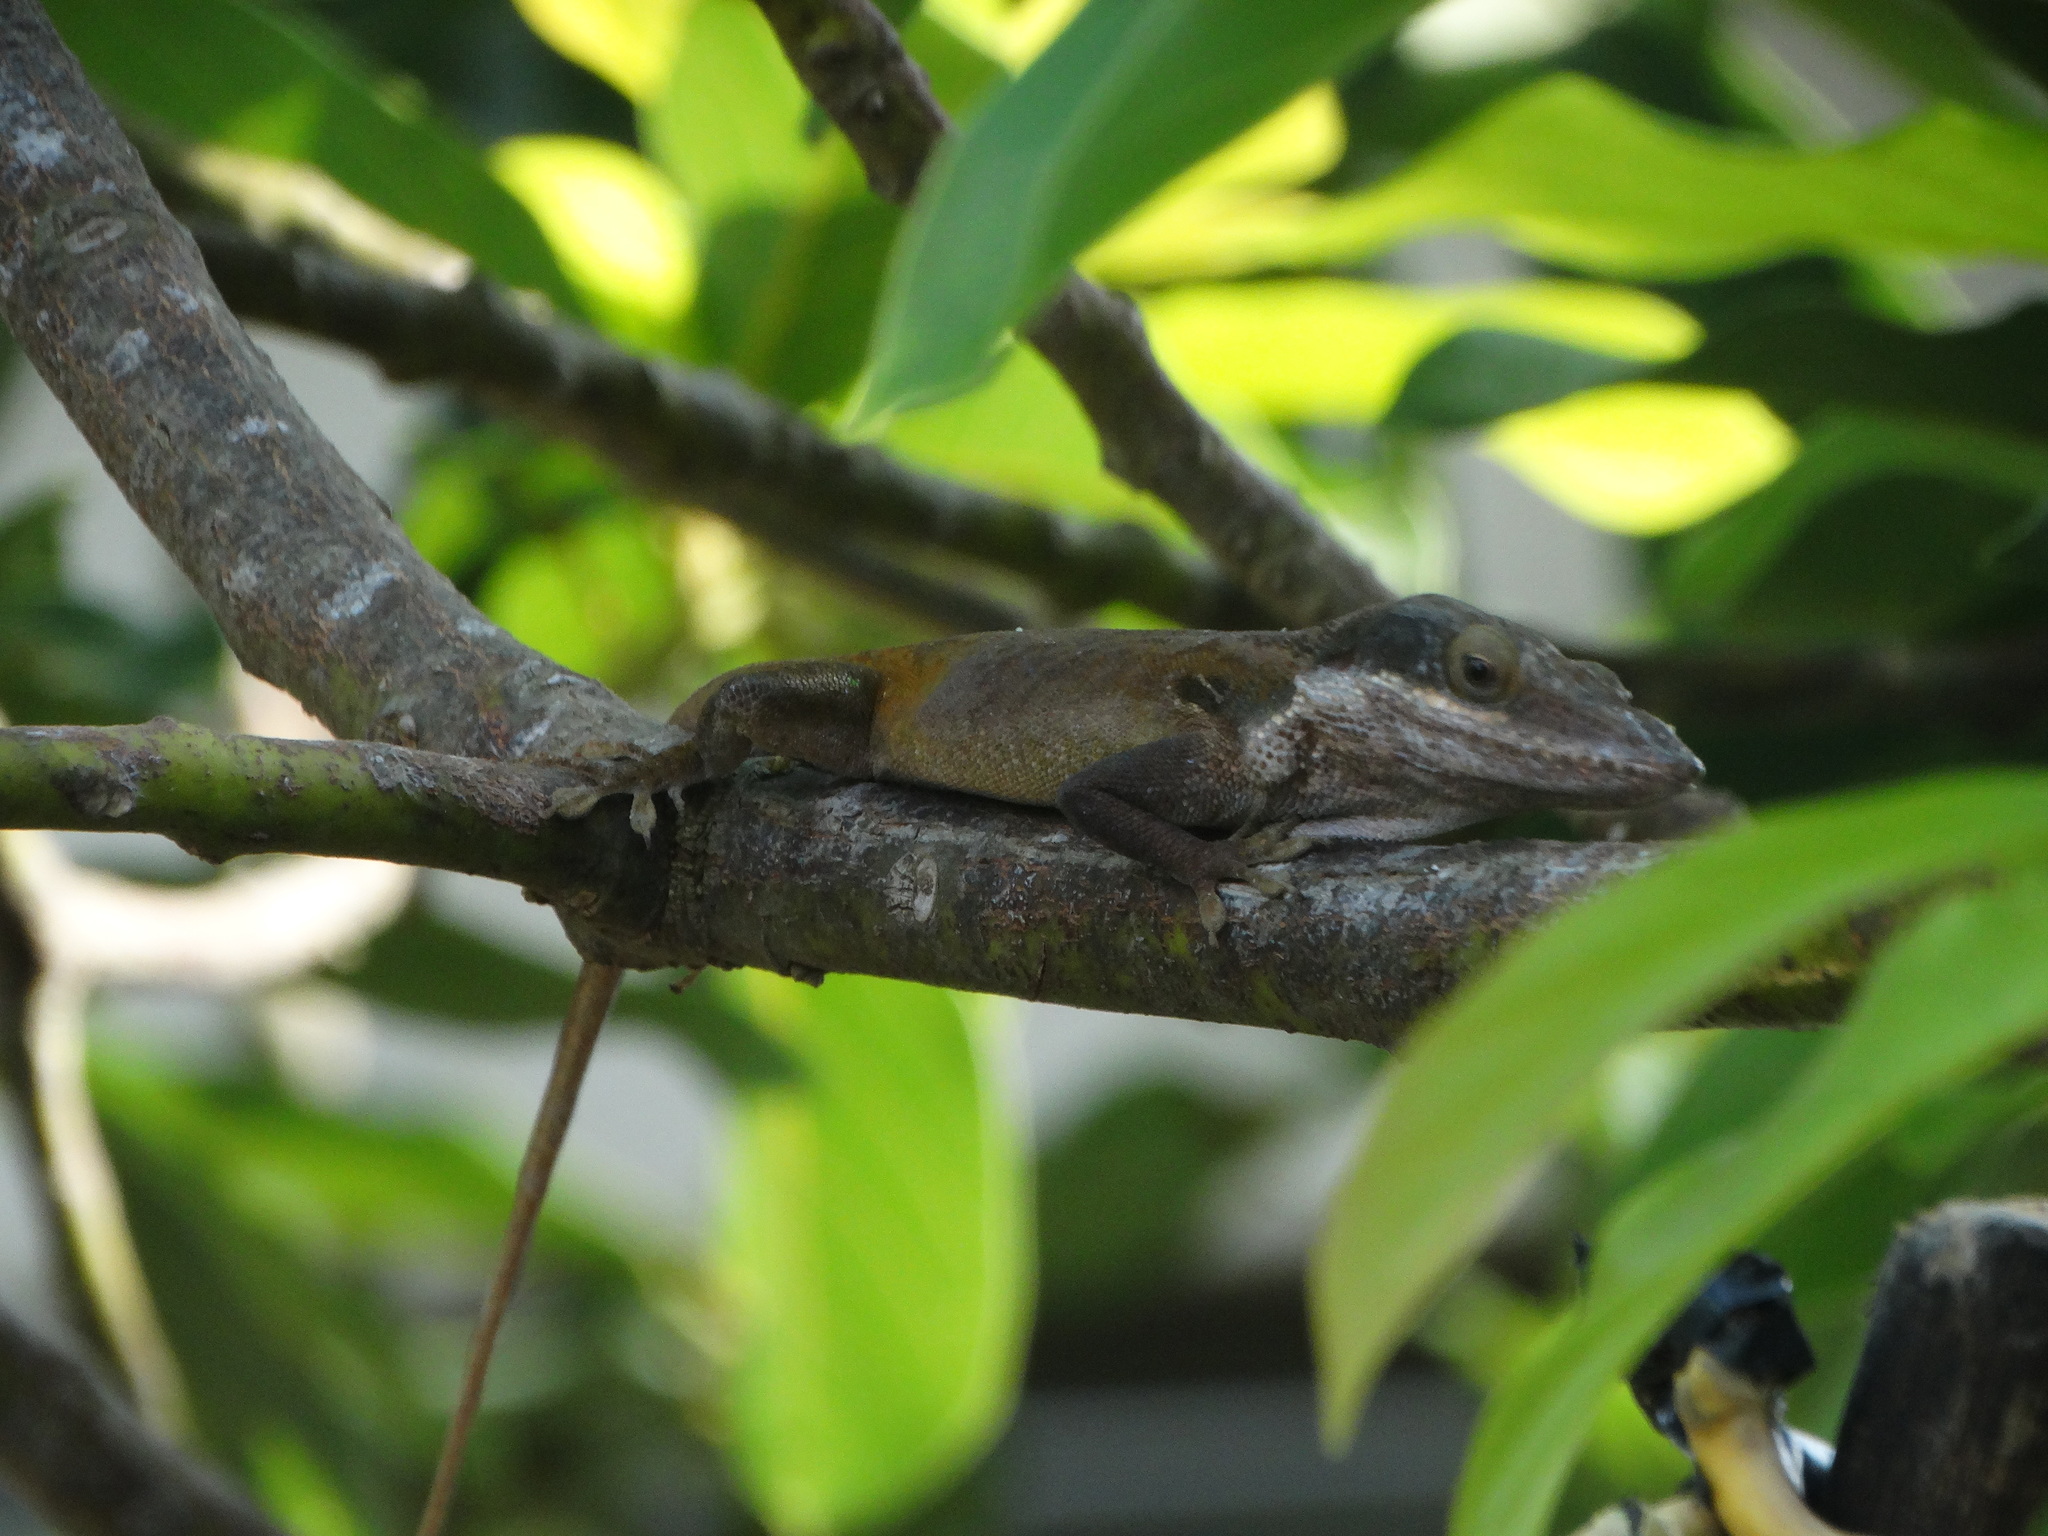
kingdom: Animalia
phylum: Chordata
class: Squamata
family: Dactyloidae
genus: Anolis
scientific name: Anolis porcatus
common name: Cuban green anole
